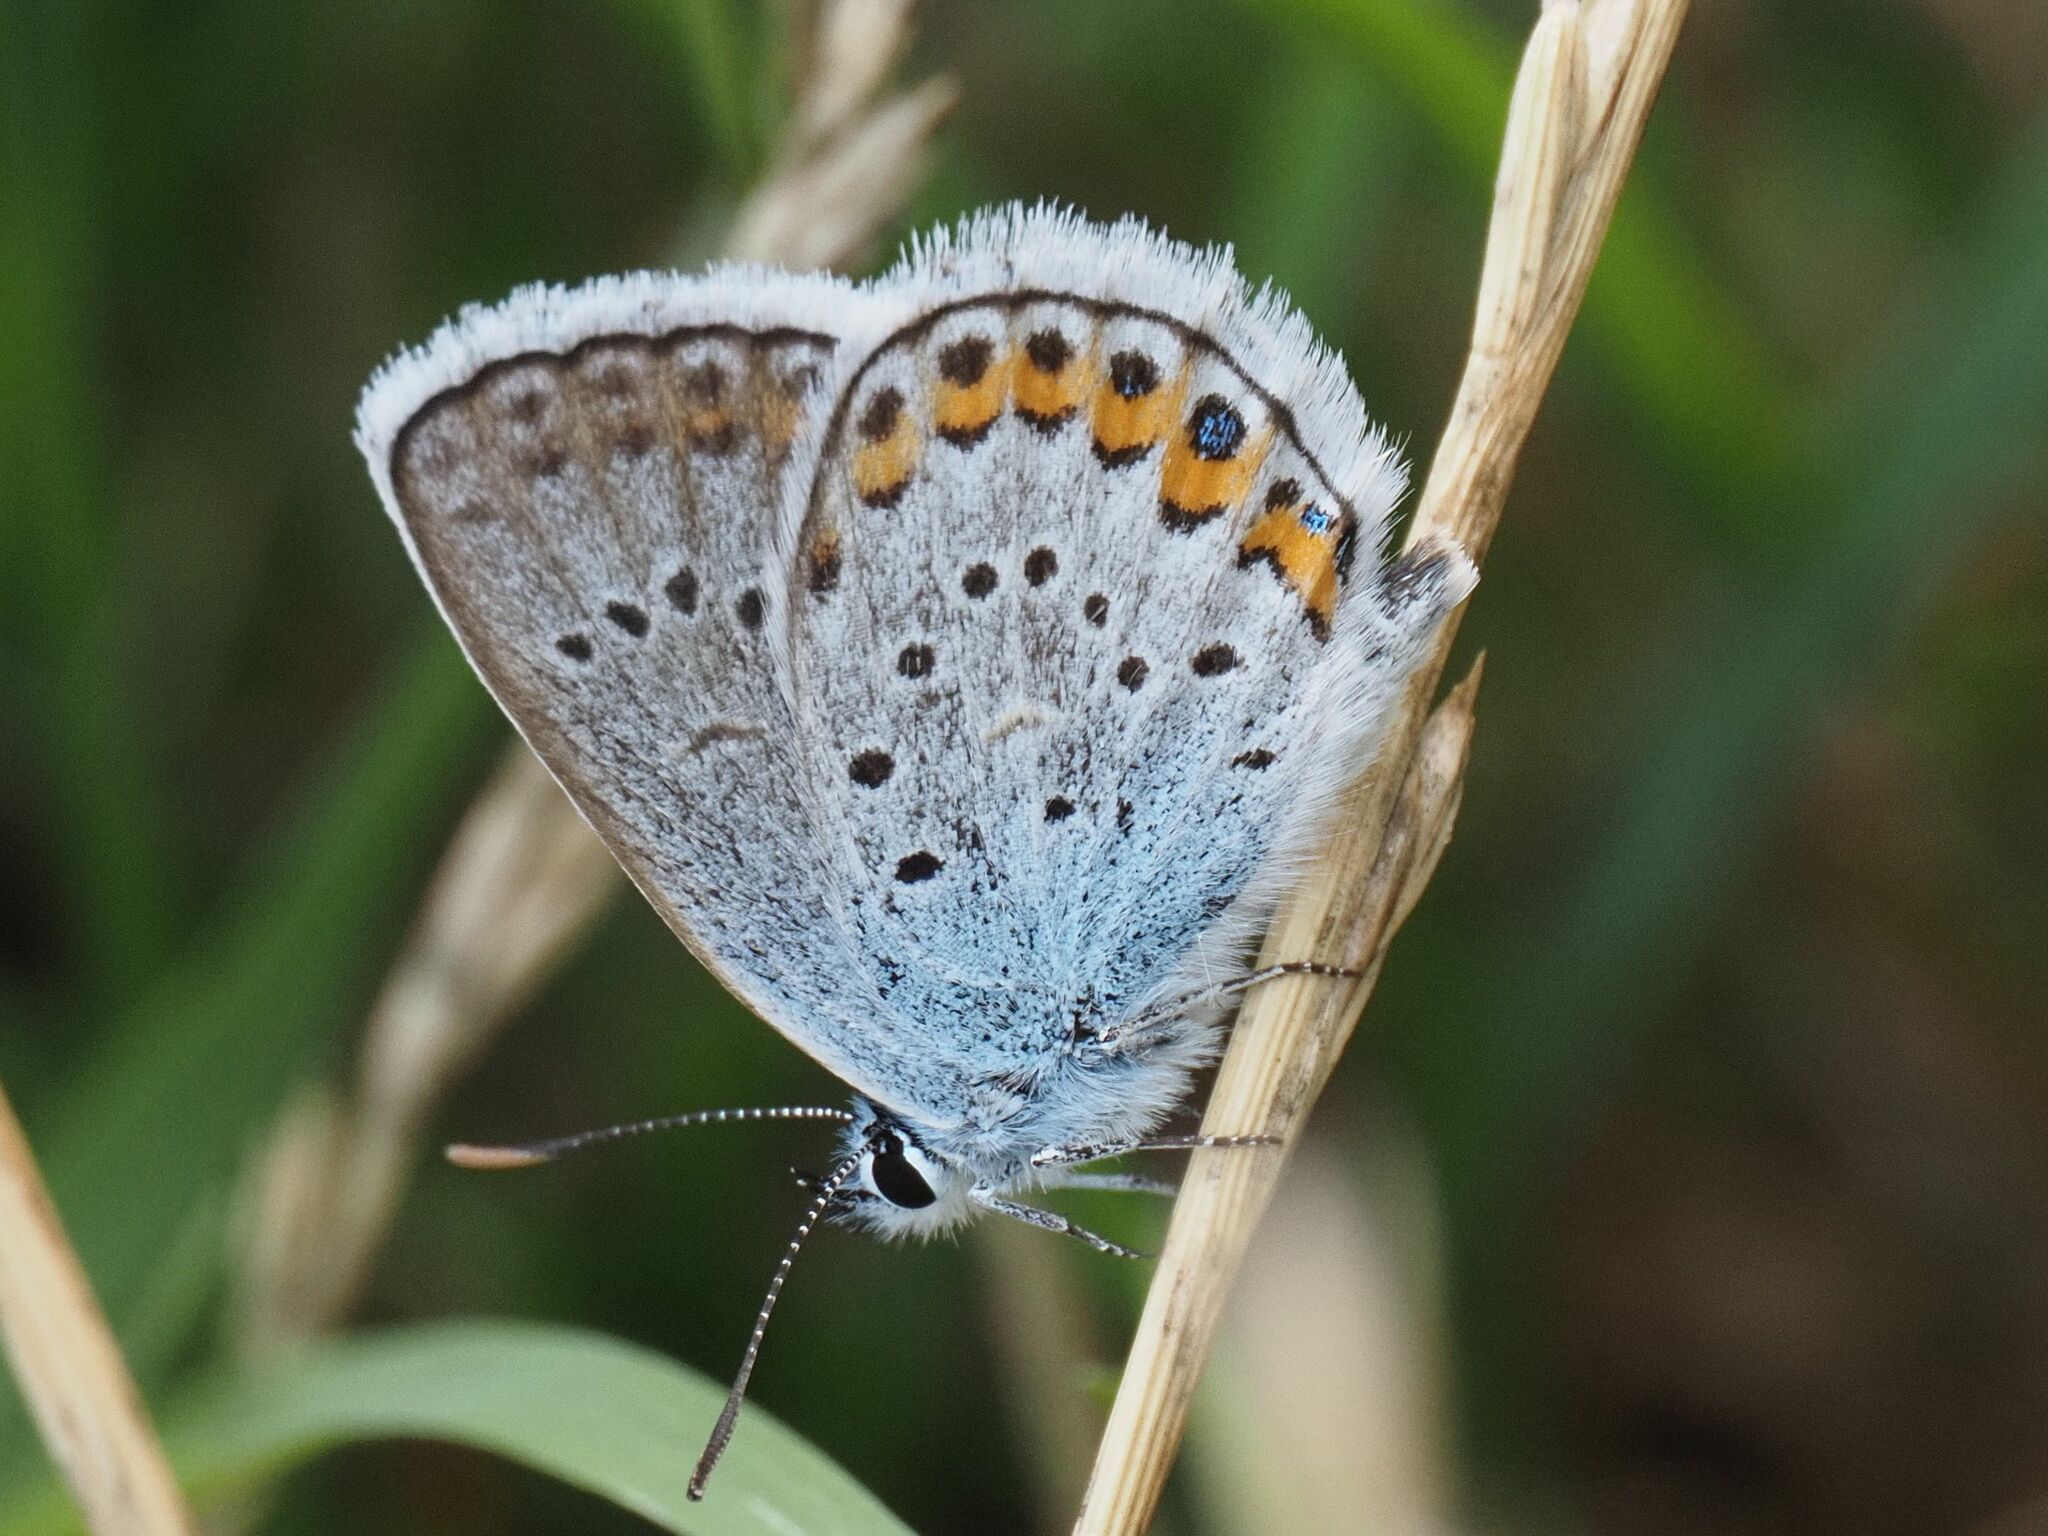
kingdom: Animalia
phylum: Arthropoda
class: Insecta
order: Lepidoptera
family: Lycaenidae
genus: Plebejus
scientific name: Plebejus argus
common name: Silver-studded blue
